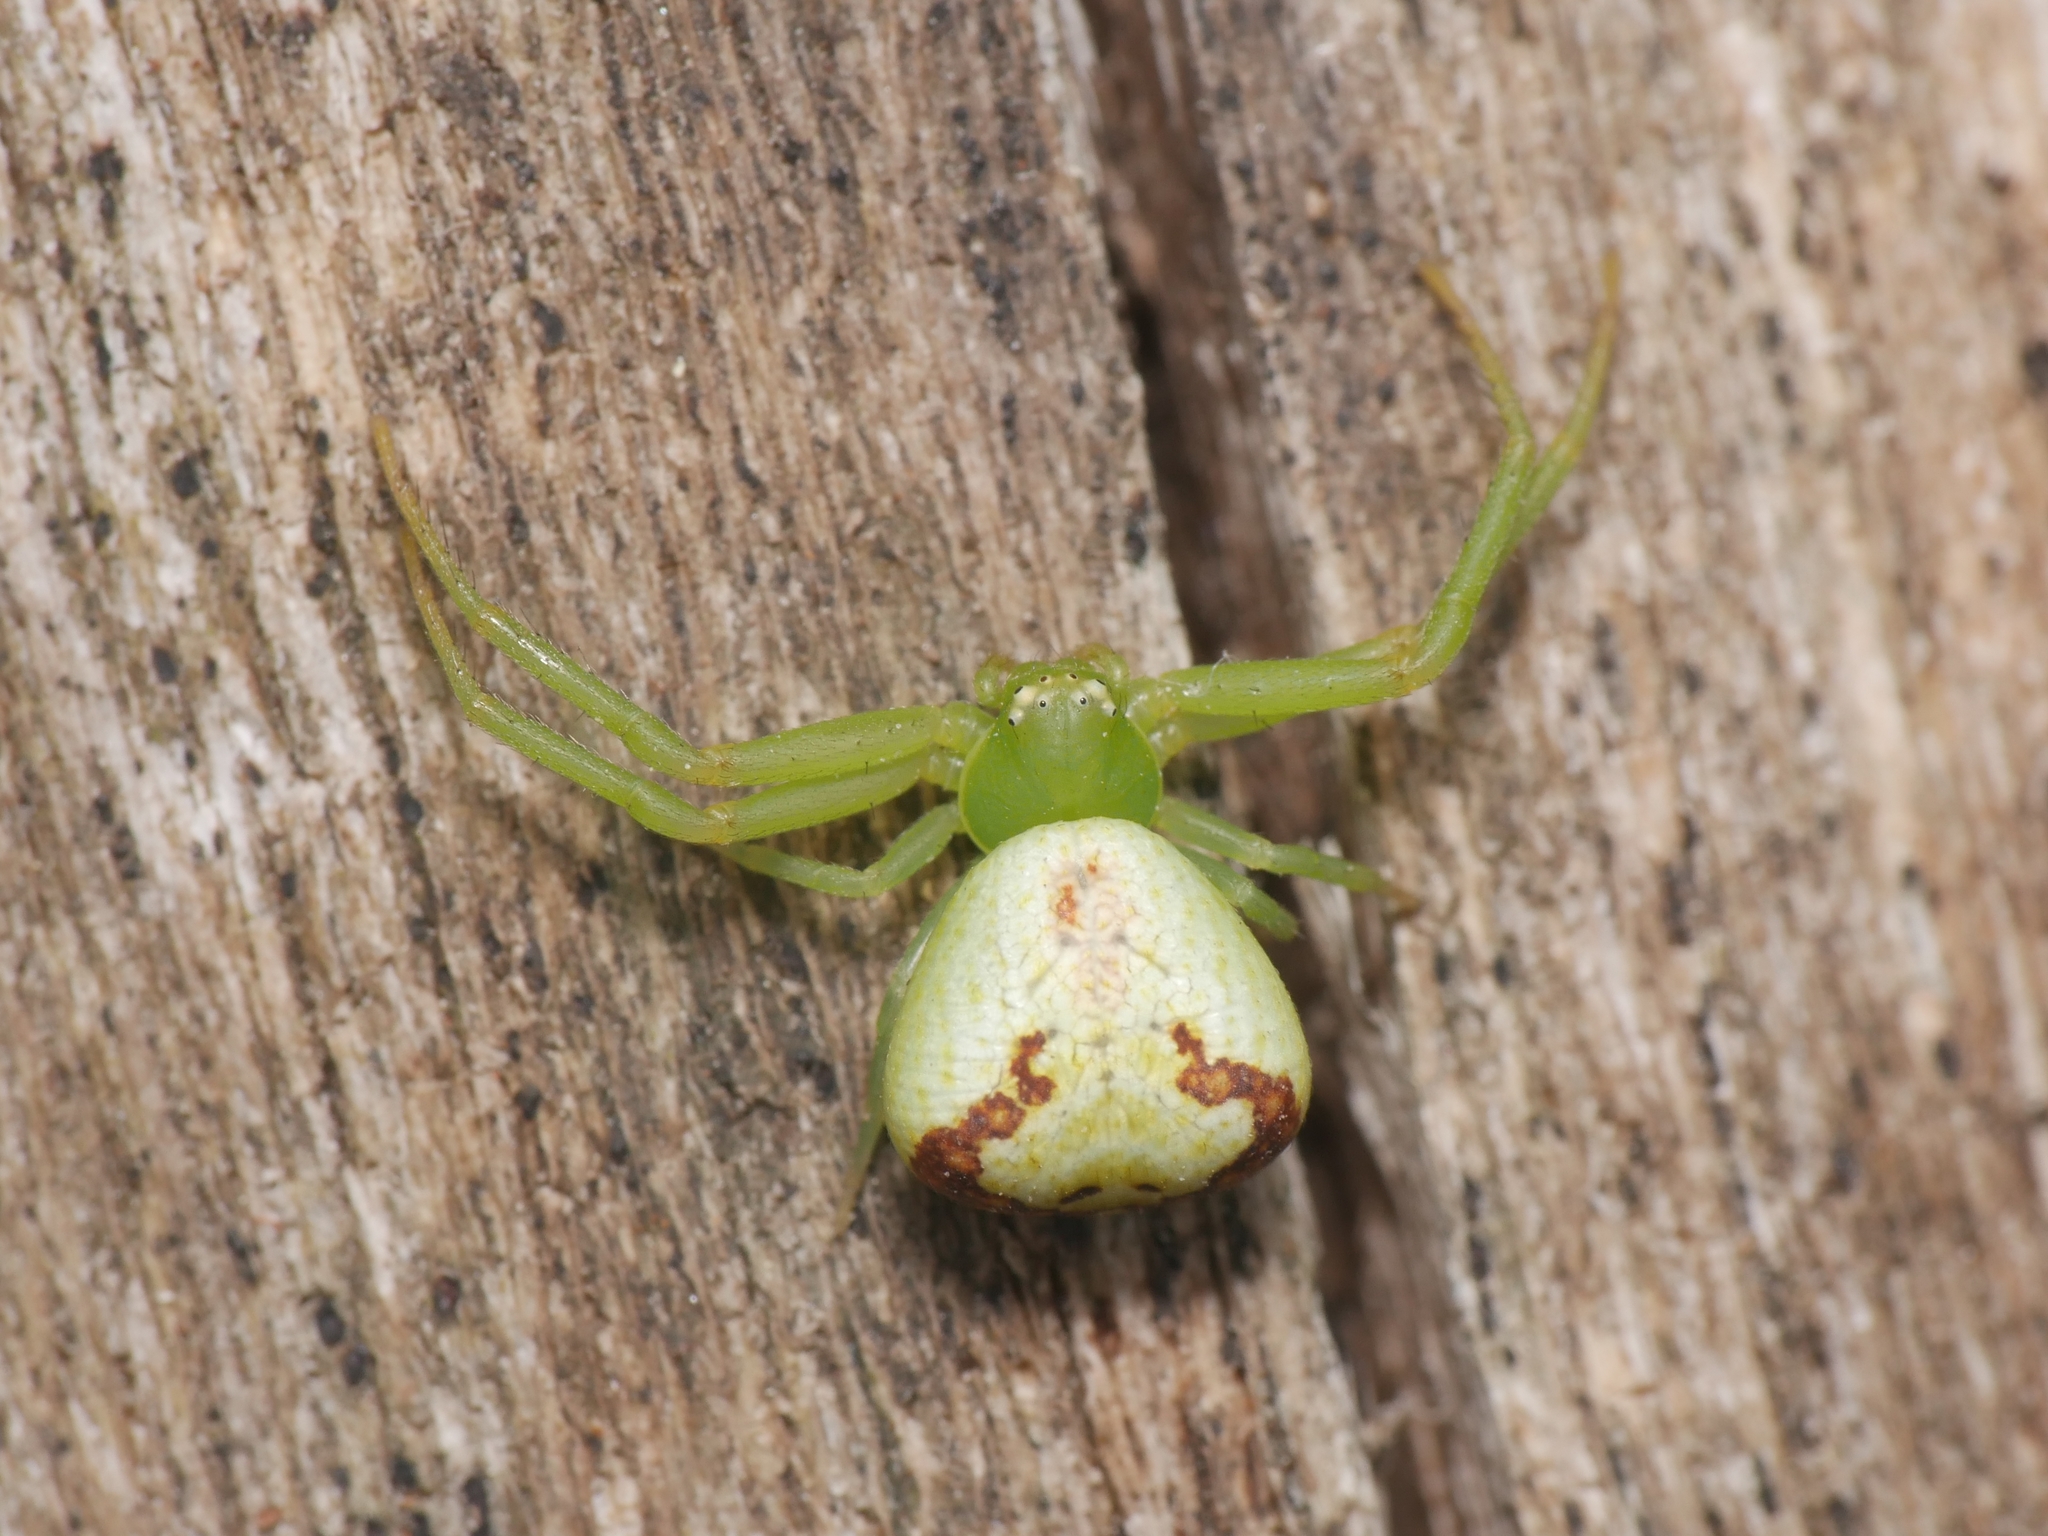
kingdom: Animalia
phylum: Arthropoda
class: Arachnida
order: Araneae
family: Thomisidae
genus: Ebrechtella
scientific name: Ebrechtella tricuspidata
